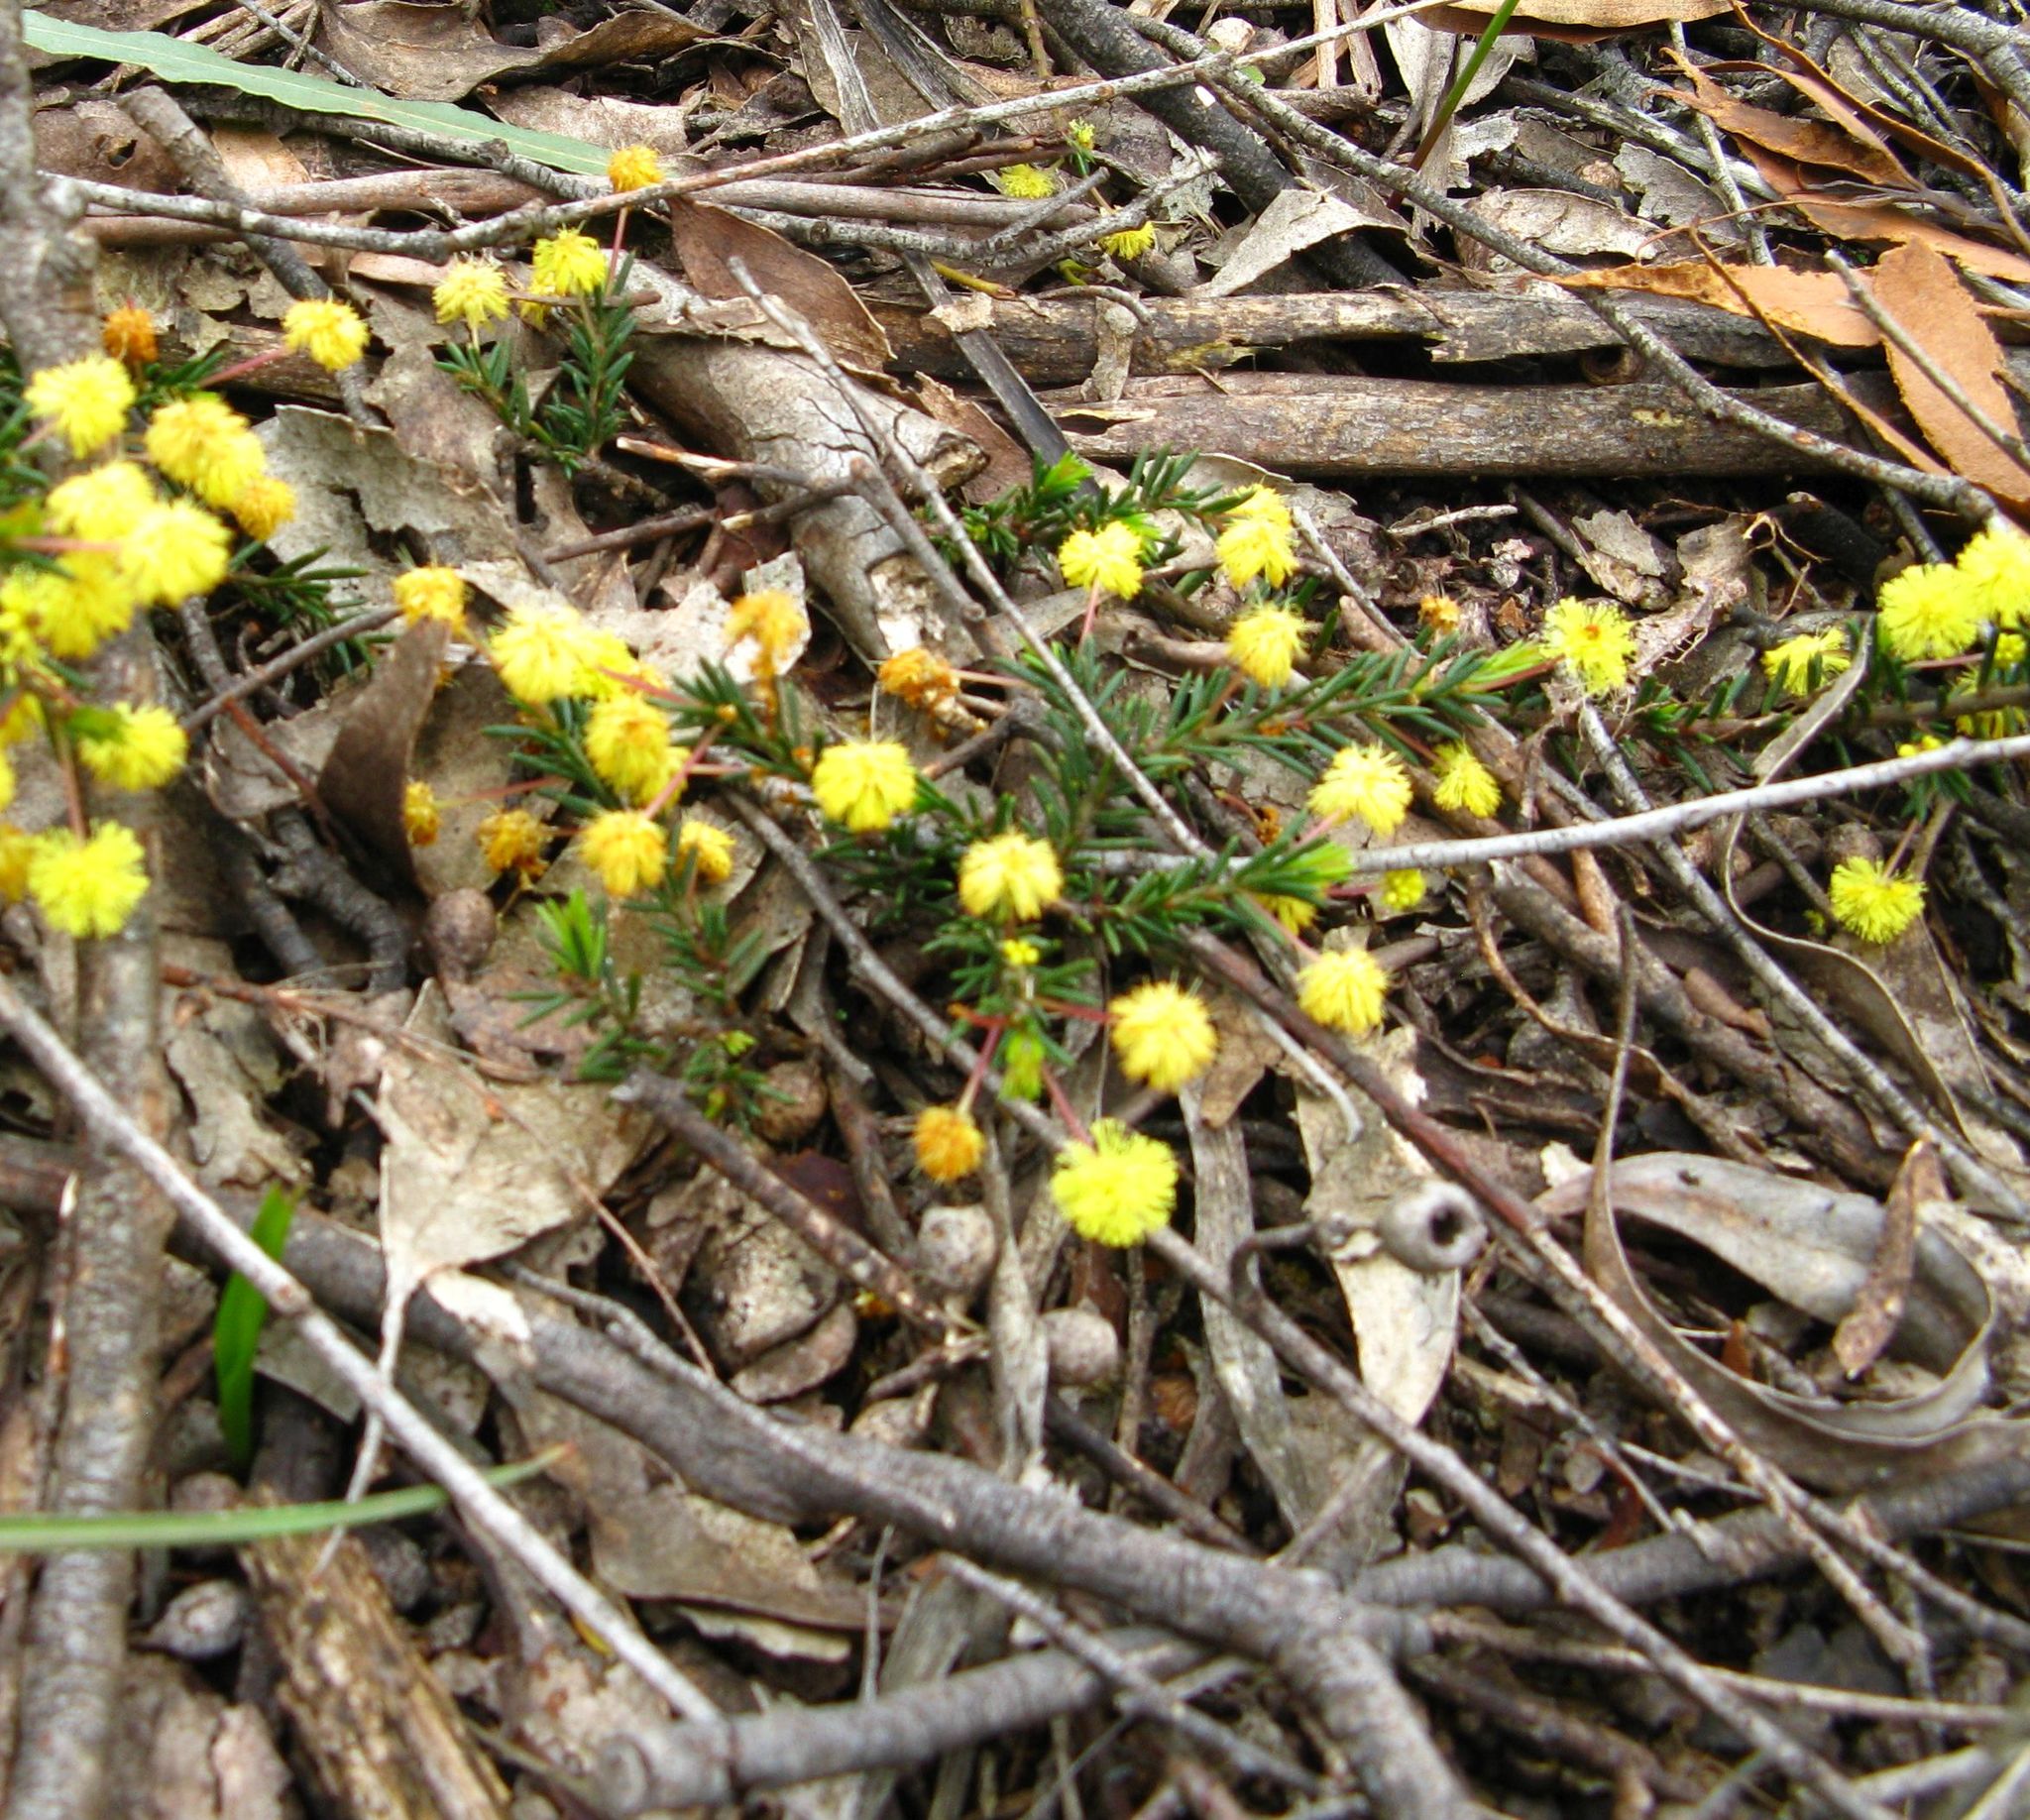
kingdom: Plantae
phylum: Tracheophyta
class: Magnoliopsida
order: Fabales
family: Fabaceae
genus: Acacia
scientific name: Acacia aculeatissima
